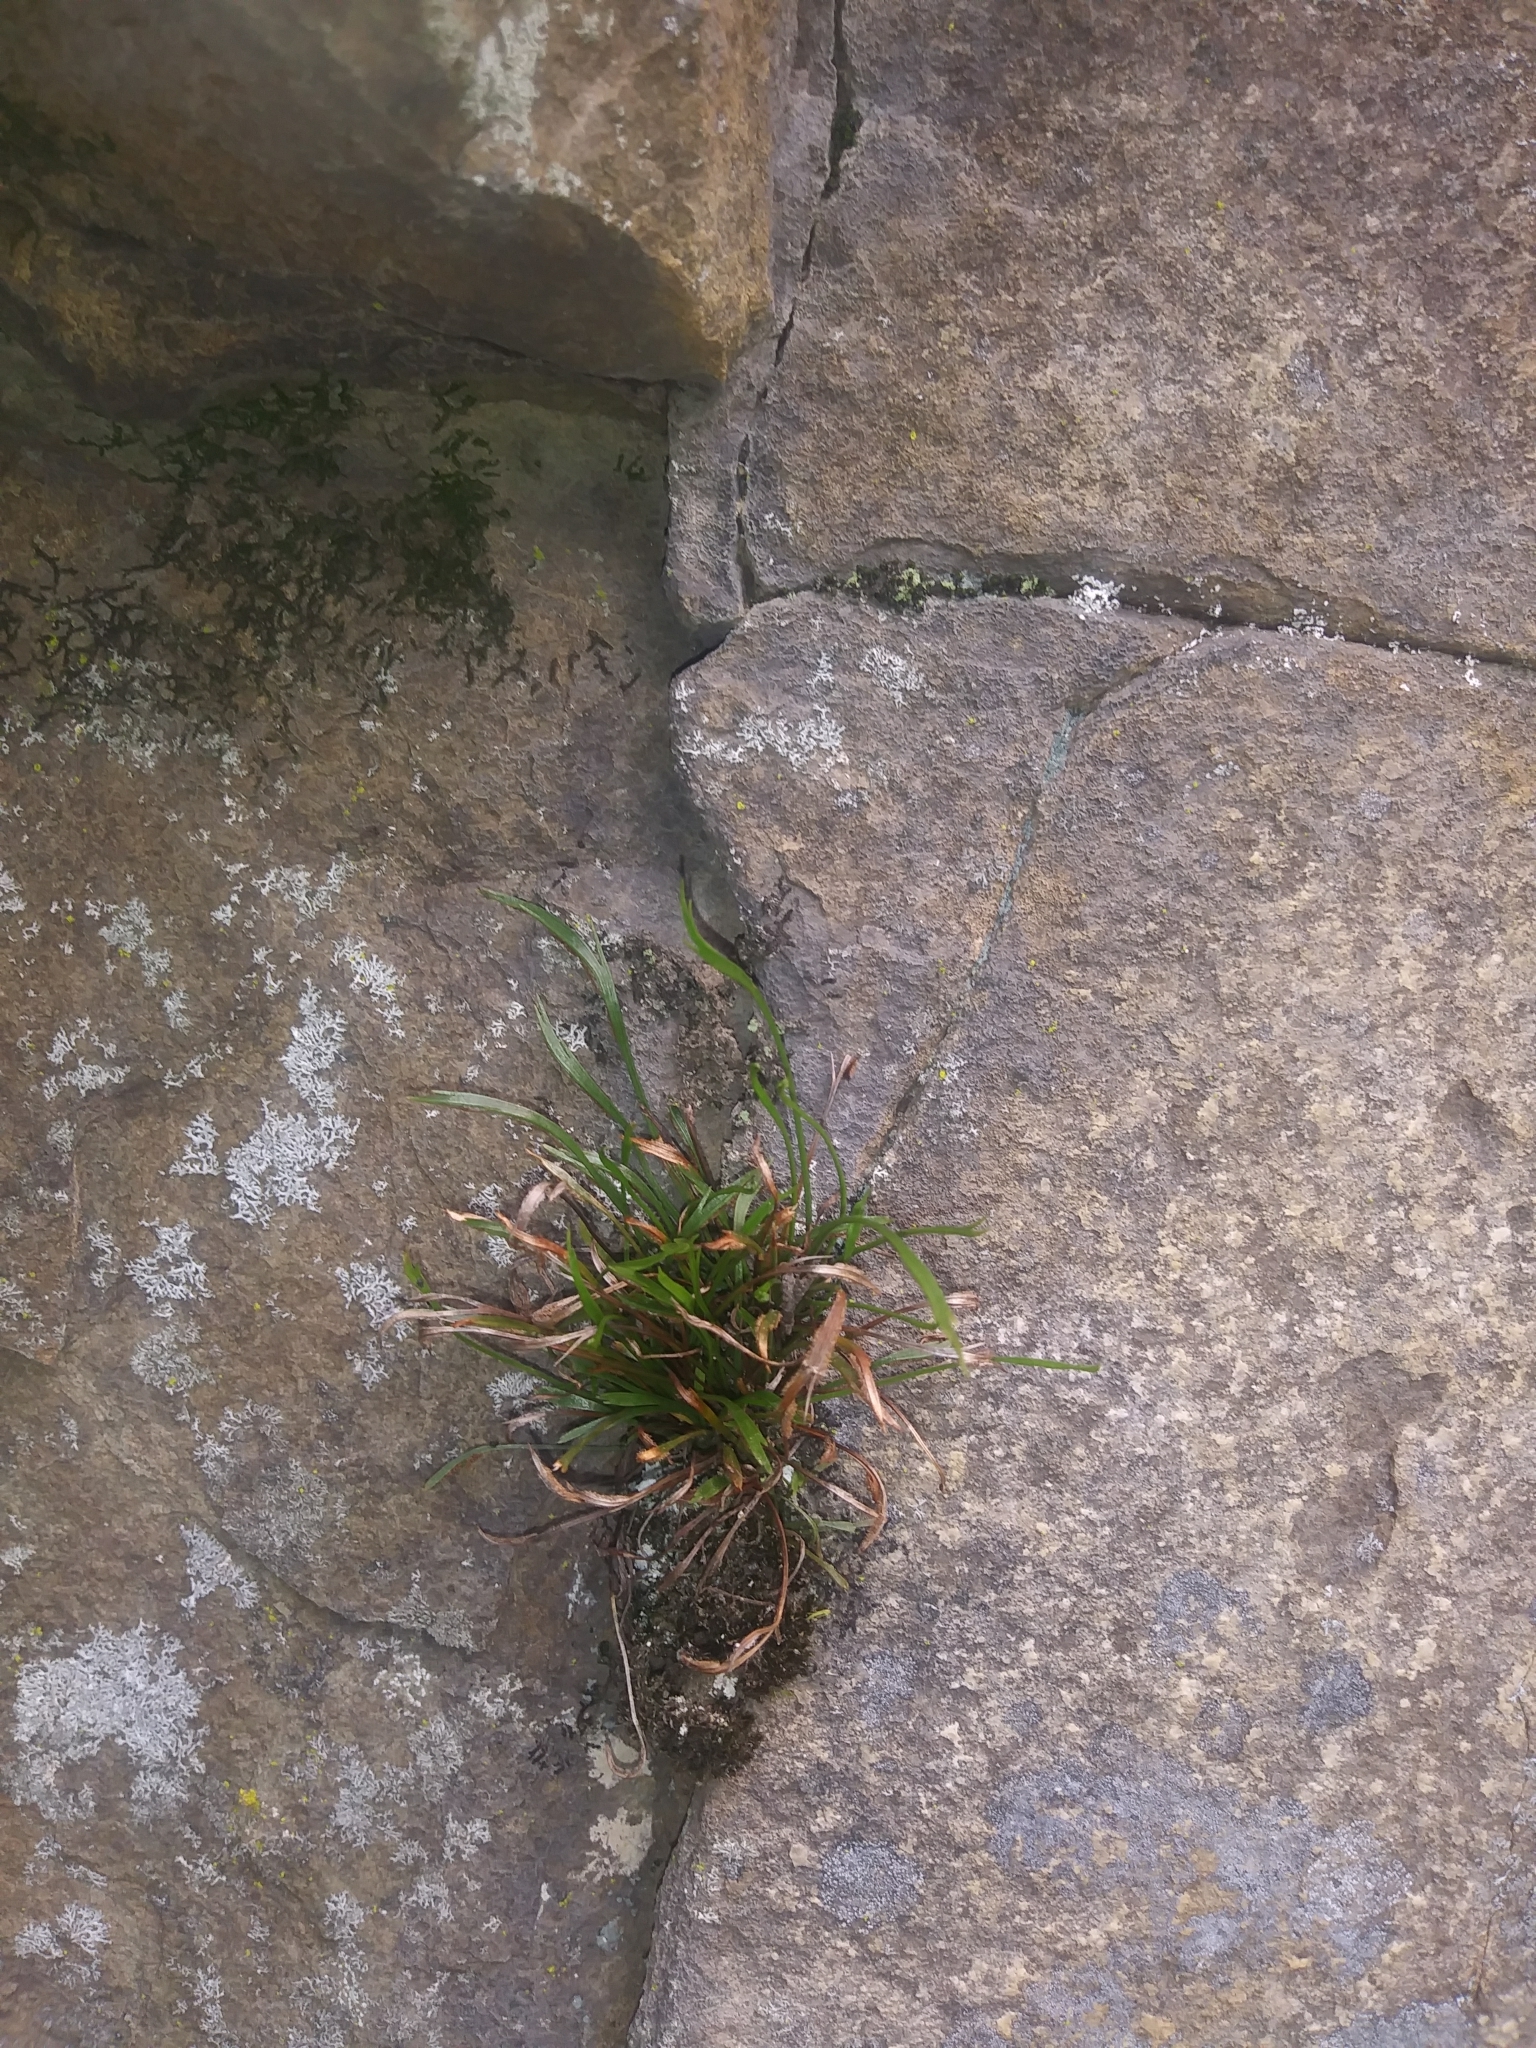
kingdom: Plantae
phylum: Tracheophyta
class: Polypodiopsida
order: Polypodiales
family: Aspleniaceae
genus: Asplenium
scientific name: Asplenium septentrionale
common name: Forked spleenwort
